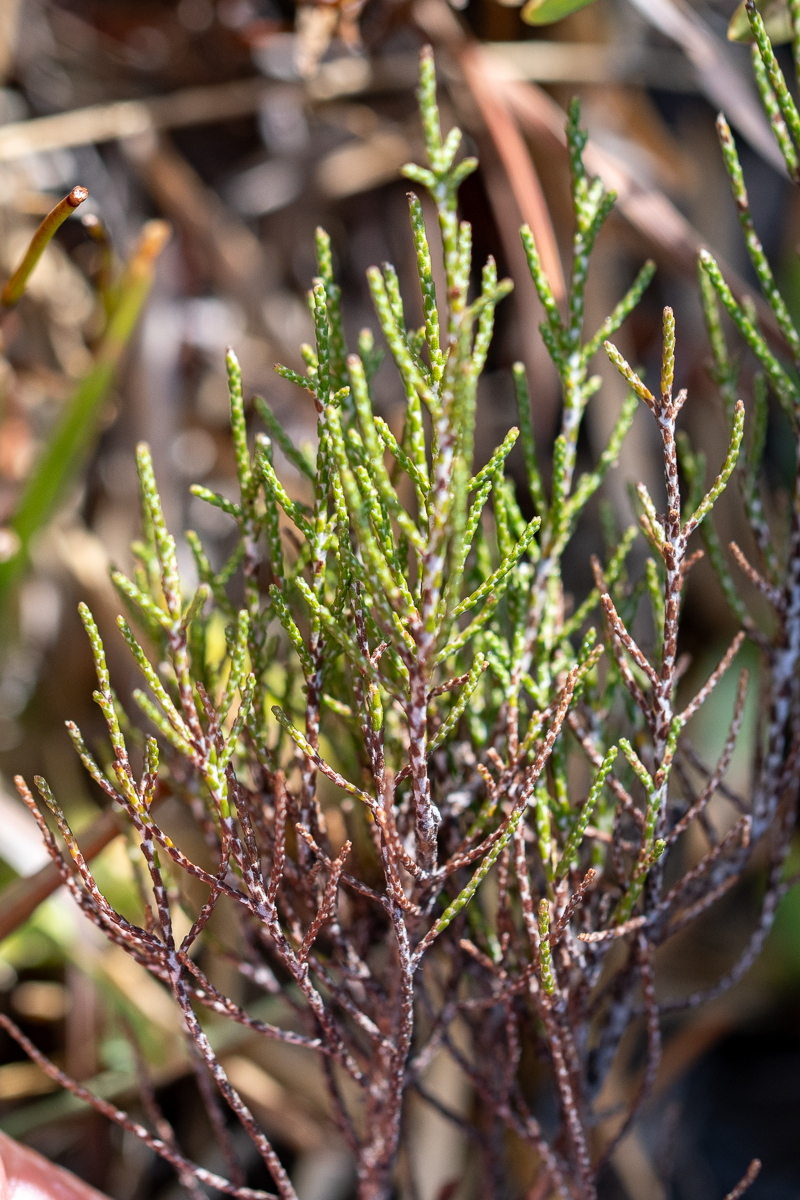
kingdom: Plantae
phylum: Tracheophyta
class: Magnoliopsida
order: Asterales
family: Asteraceae
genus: Dicerothamnus
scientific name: Dicerothamnus rhinocerotis
